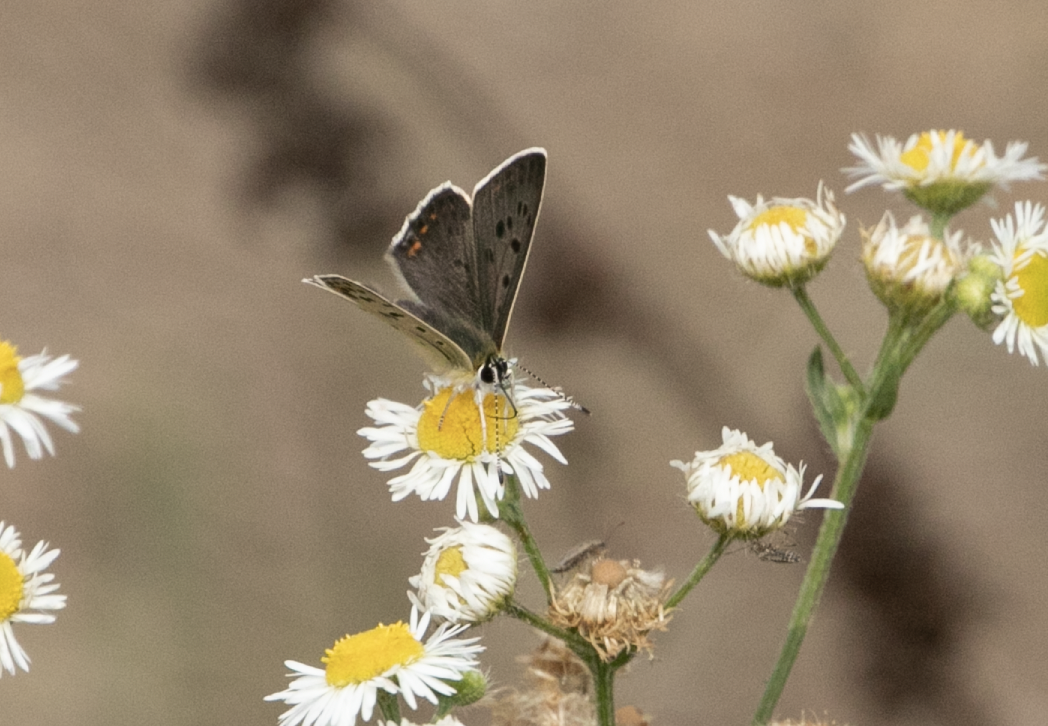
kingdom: Animalia
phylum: Arthropoda
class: Insecta
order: Lepidoptera
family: Lycaenidae
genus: Loweia
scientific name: Loweia tityrus
